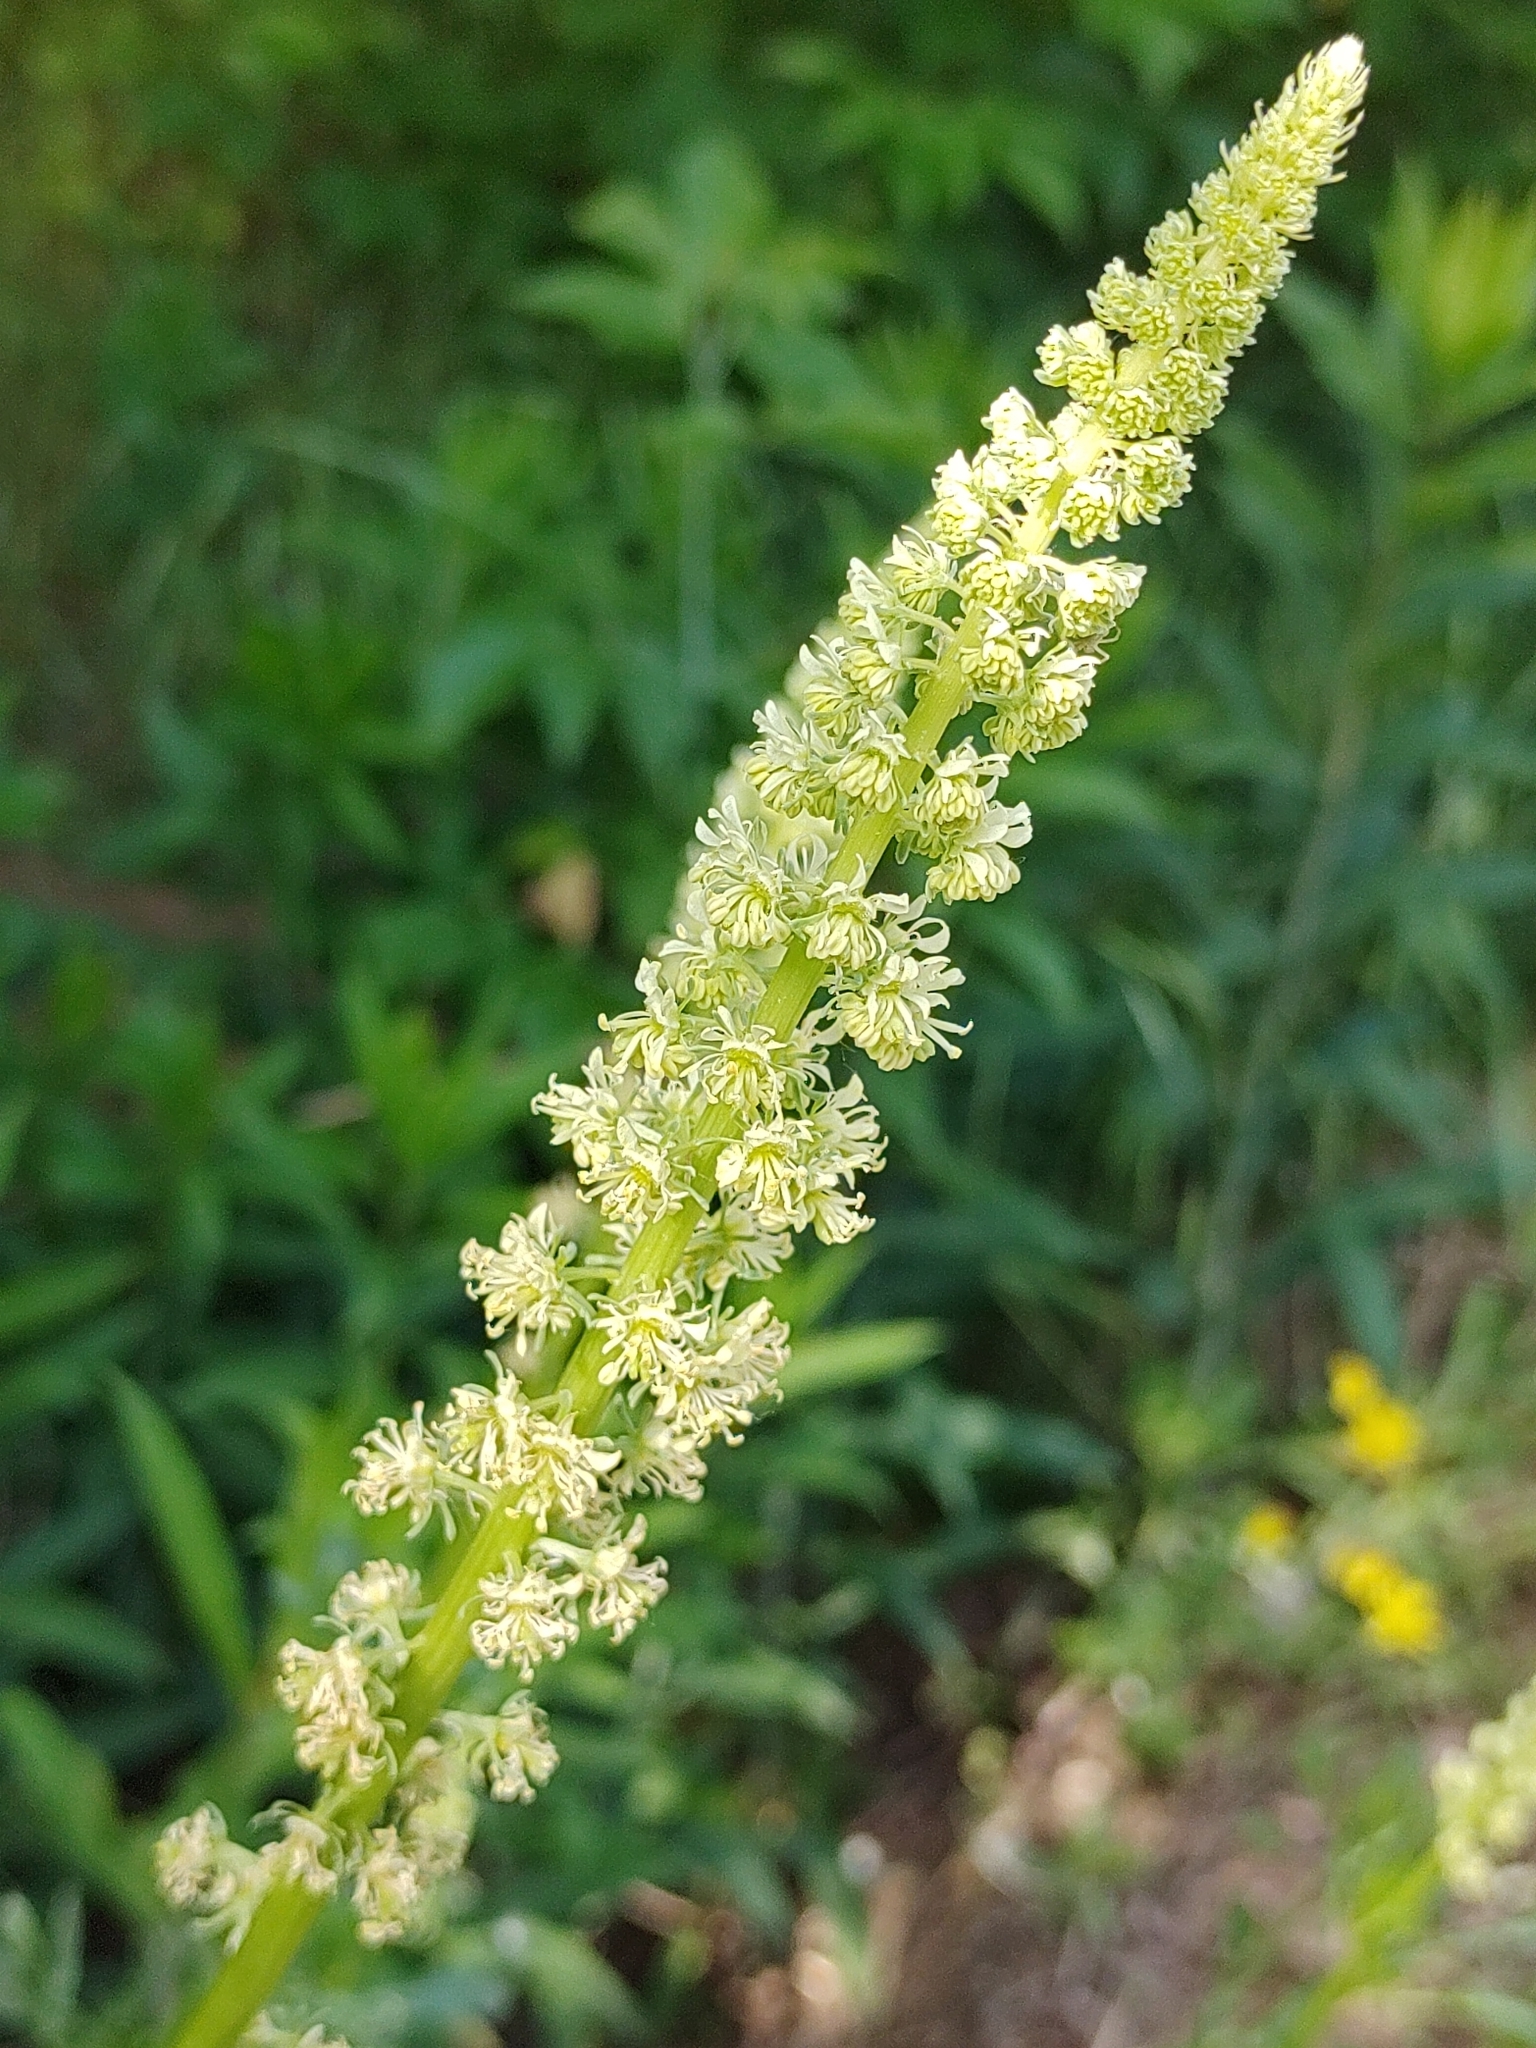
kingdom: Plantae
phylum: Tracheophyta
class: Magnoliopsida
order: Brassicales
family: Resedaceae
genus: Reseda
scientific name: Reseda lutea
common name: Wild mignonette
